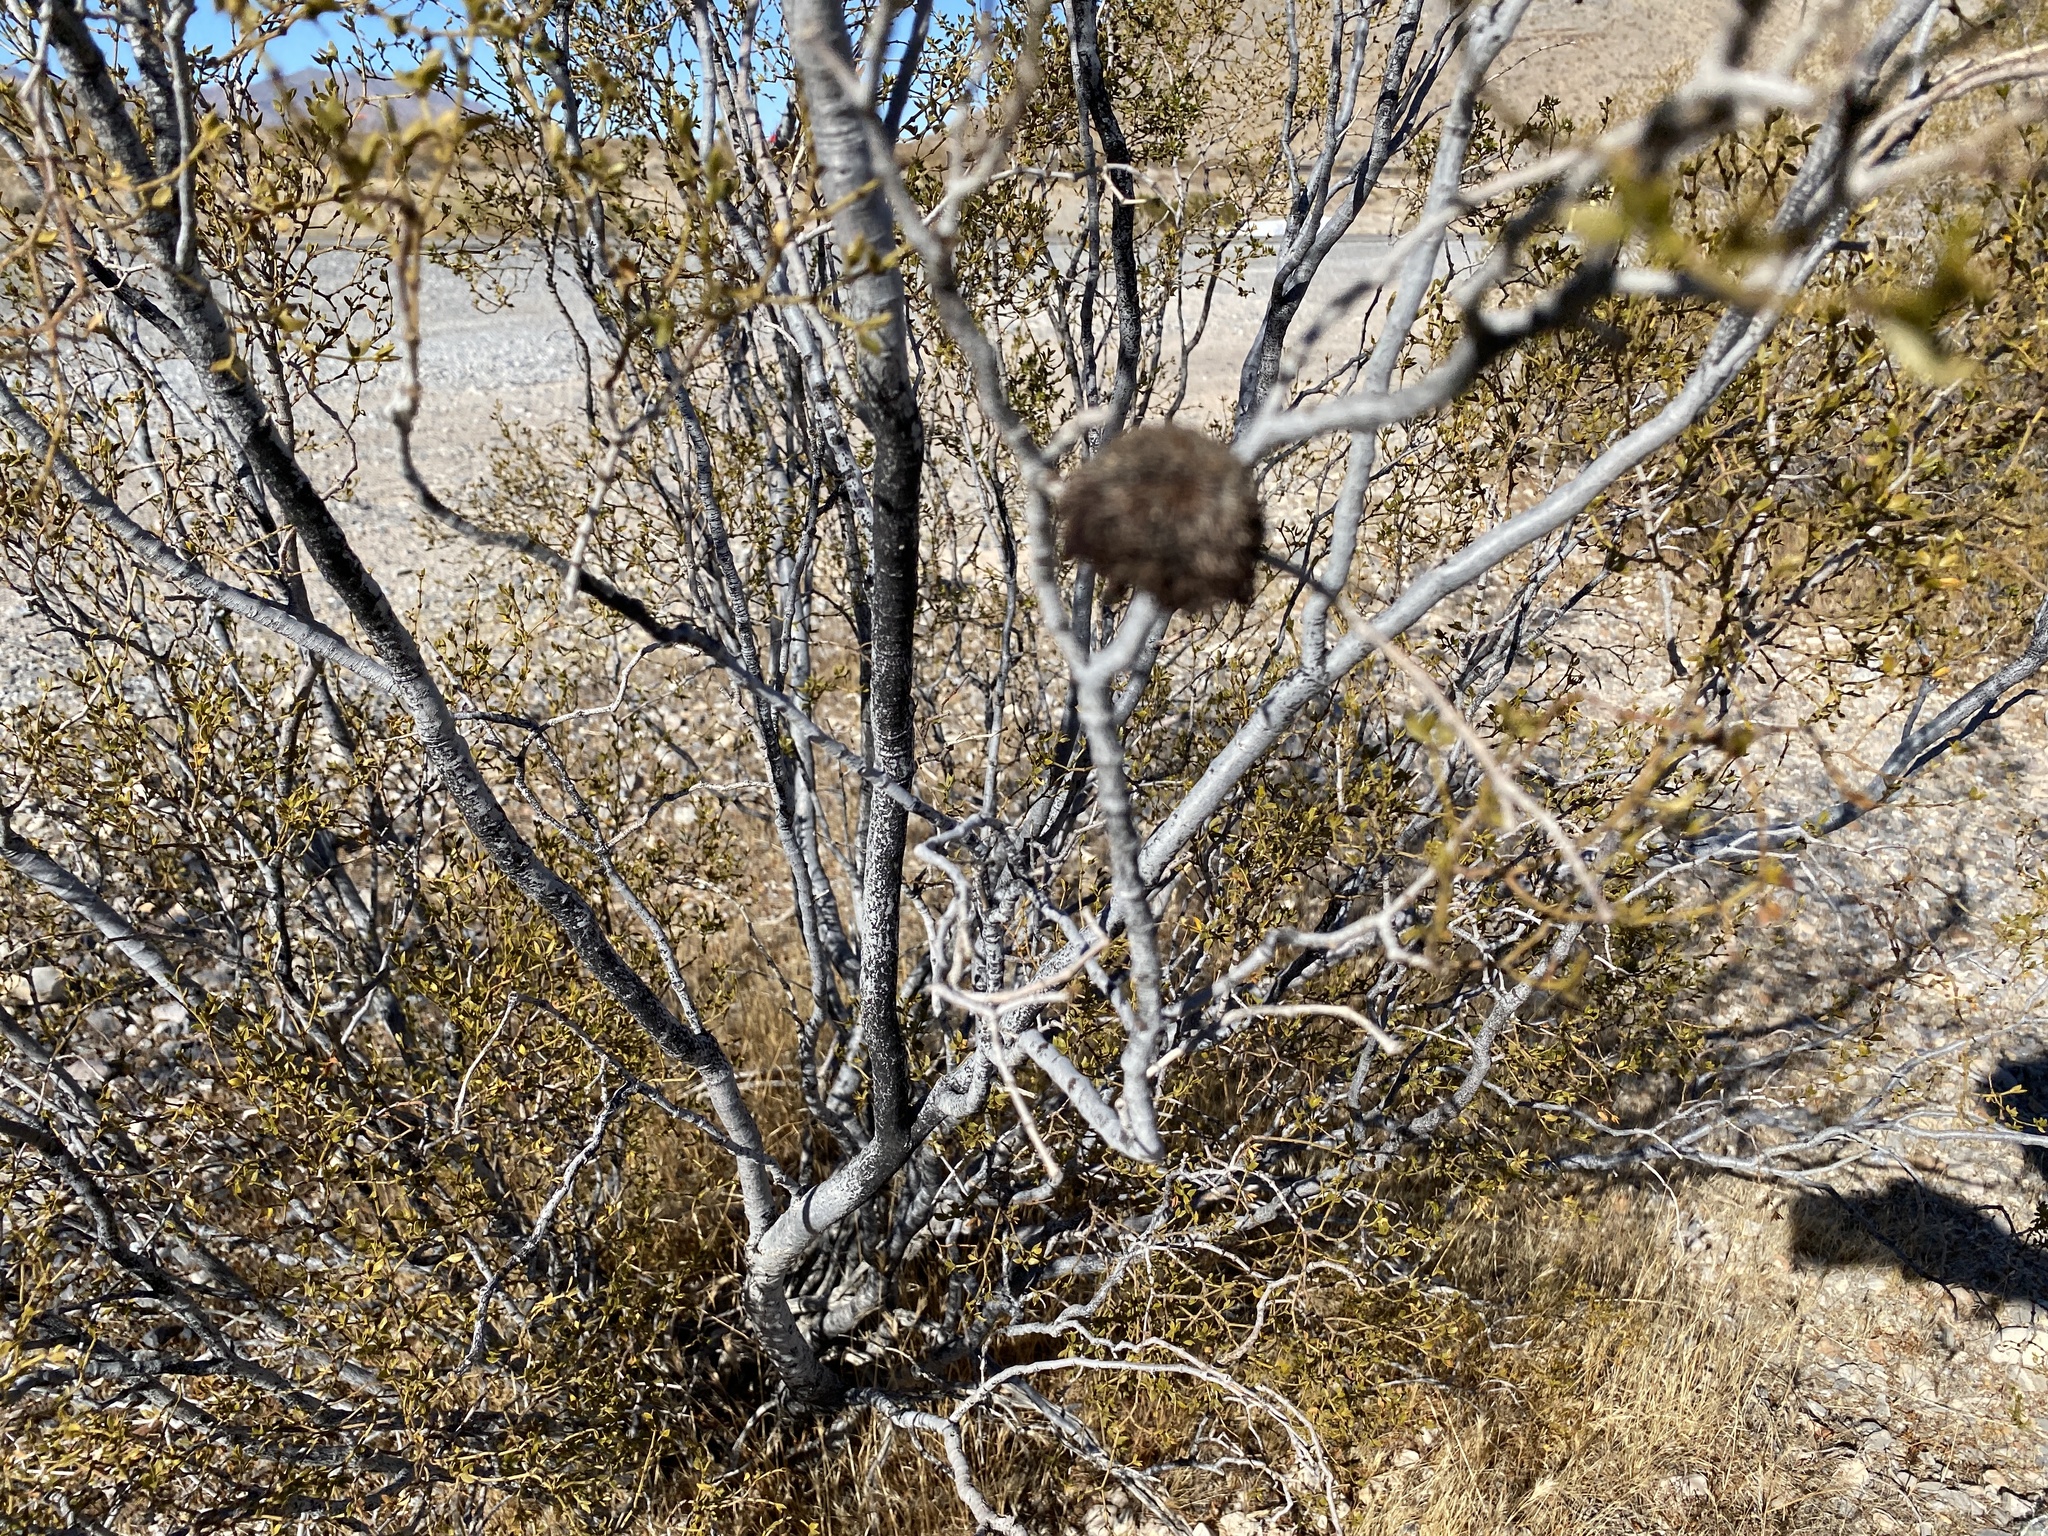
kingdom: Animalia
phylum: Arthropoda
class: Insecta
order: Diptera
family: Cecidomyiidae
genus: Asphondylia
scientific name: Asphondylia auripila
